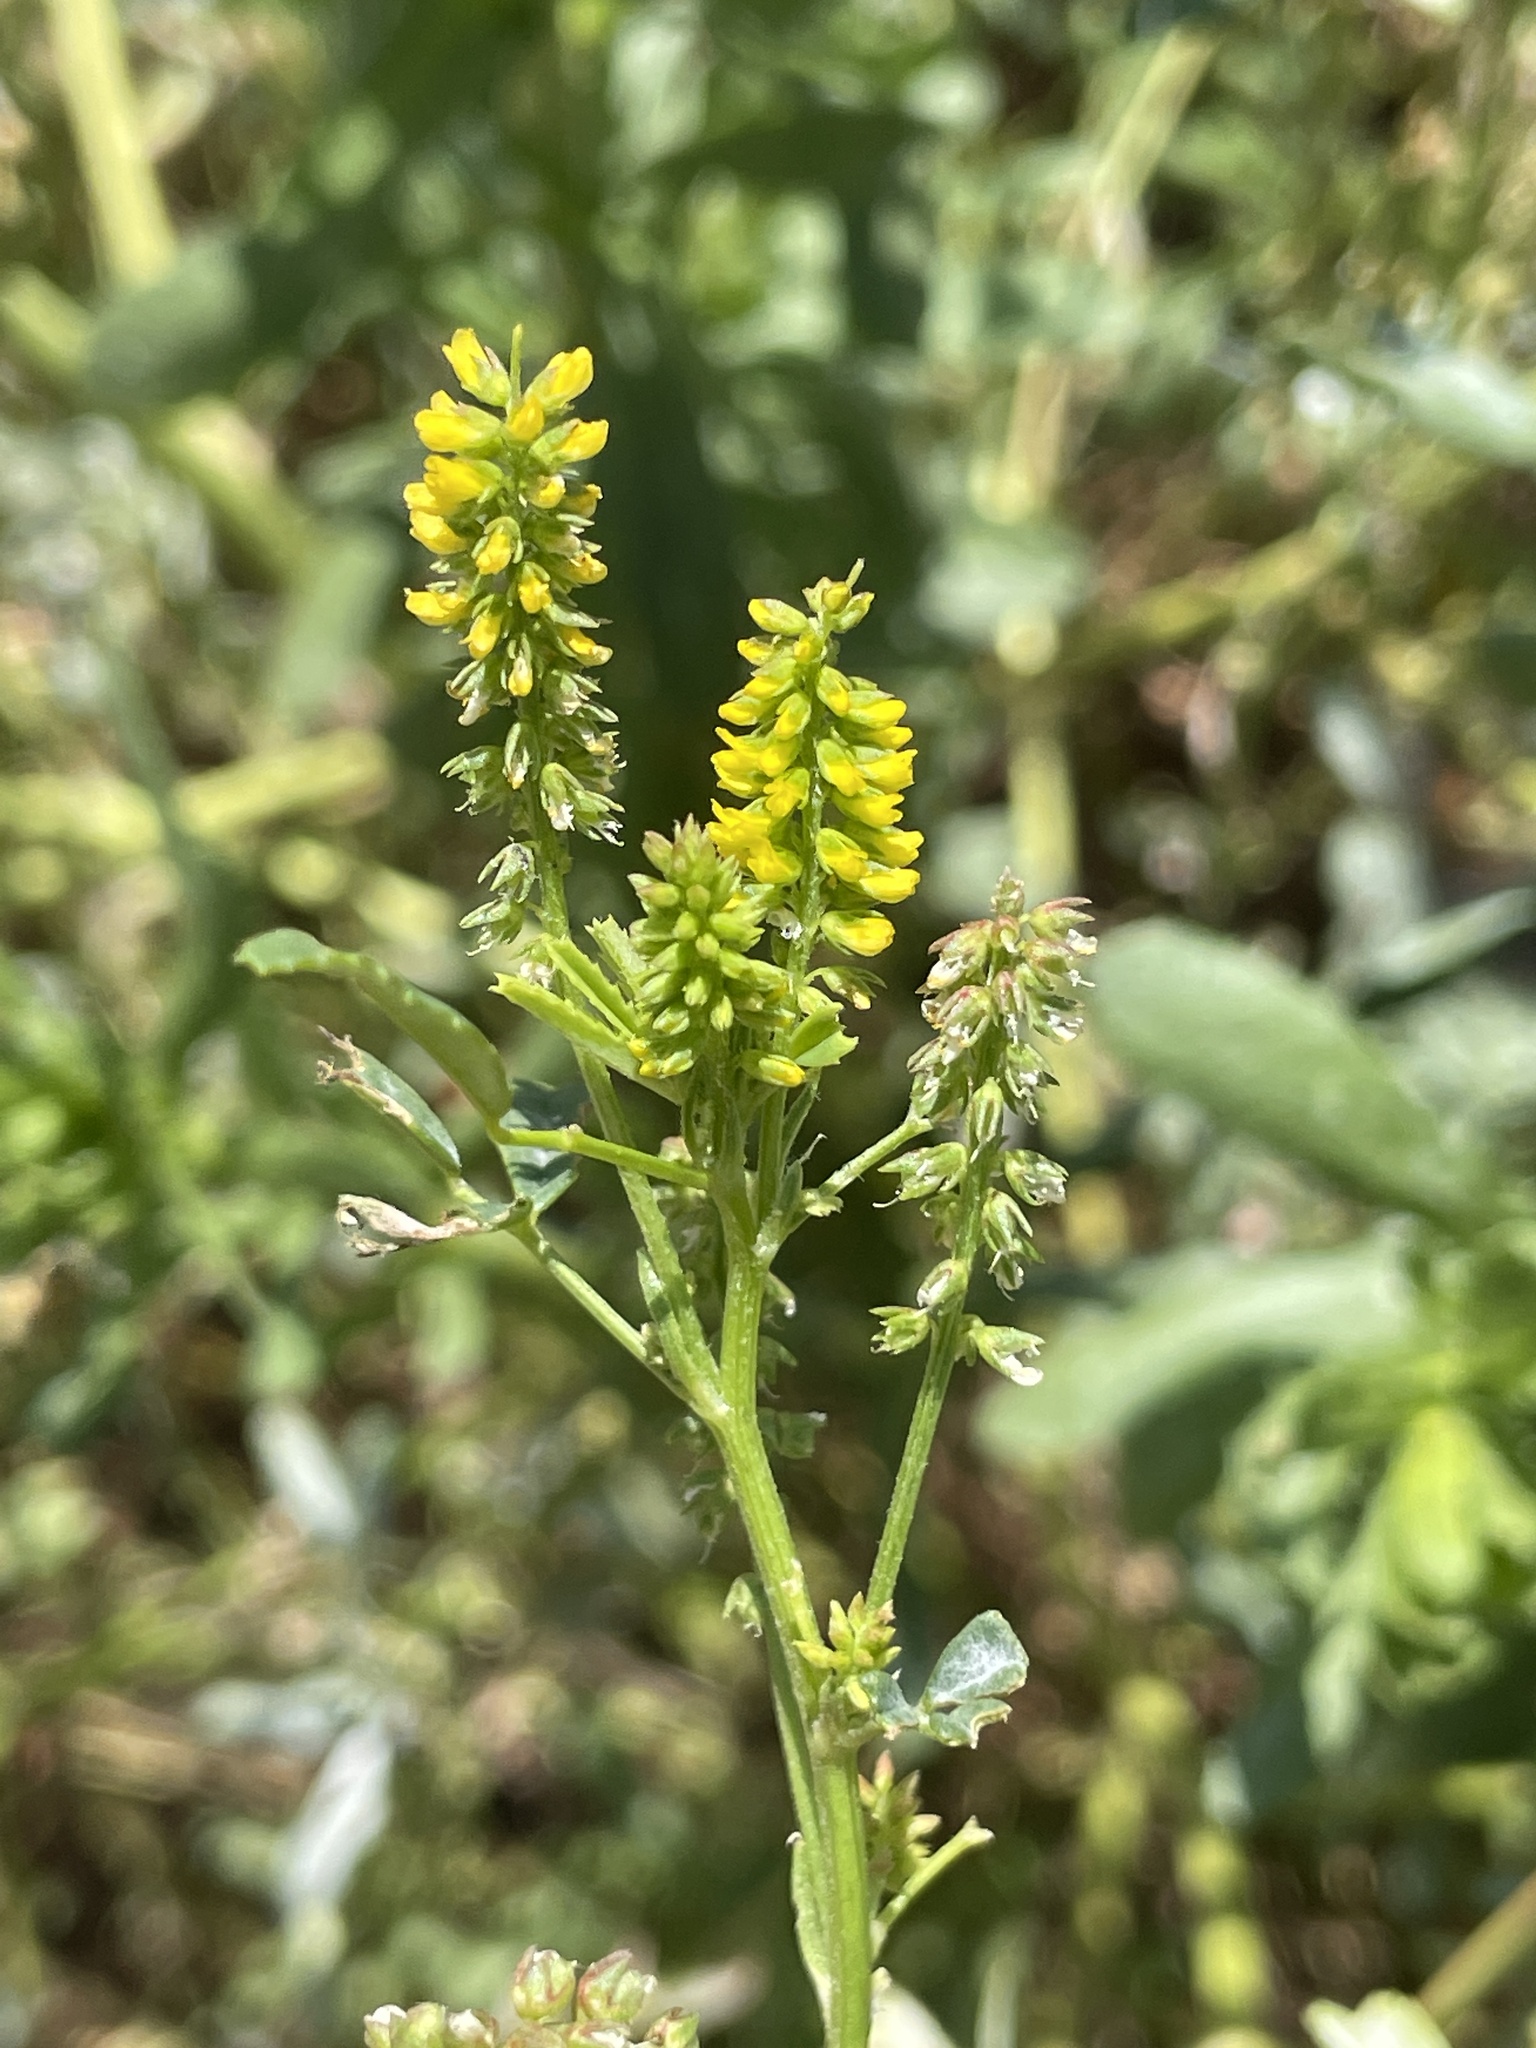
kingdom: Plantae
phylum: Tracheophyta
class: Magnoliopsida
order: Fabales
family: Fabaceae
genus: Melilotus
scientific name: Melilotus indicus
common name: Small melilot
